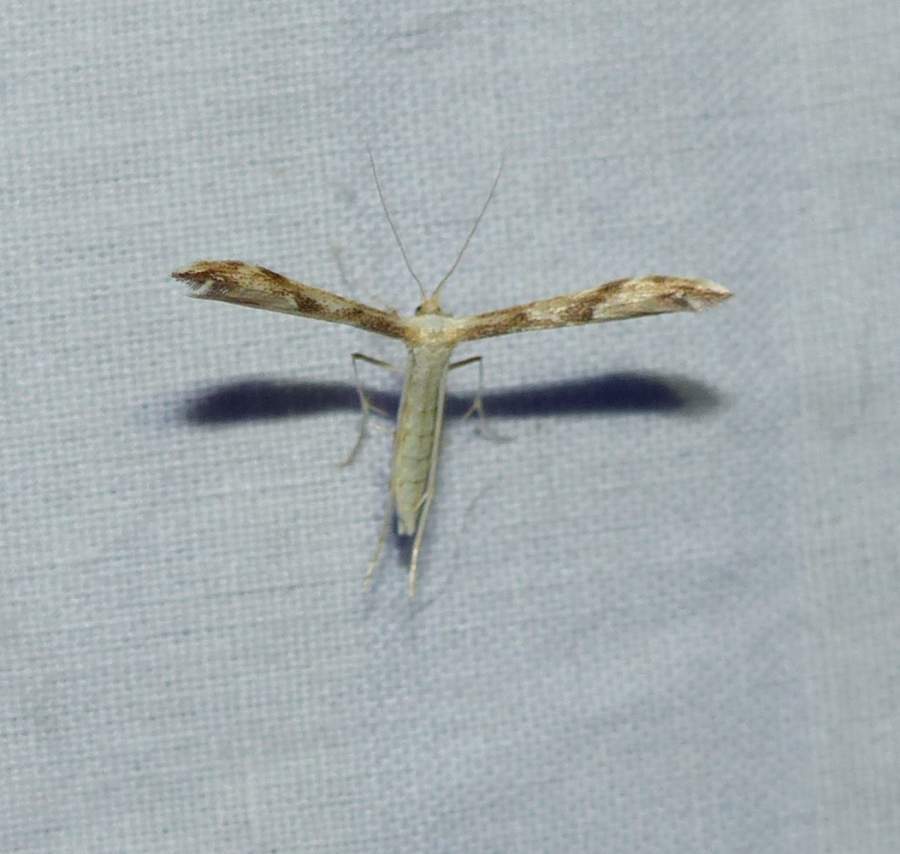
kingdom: Animalia
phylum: Arthropoda
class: Insecta
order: Lepidoptera
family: Pterophoridae
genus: Adaina
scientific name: Adaina montanus
